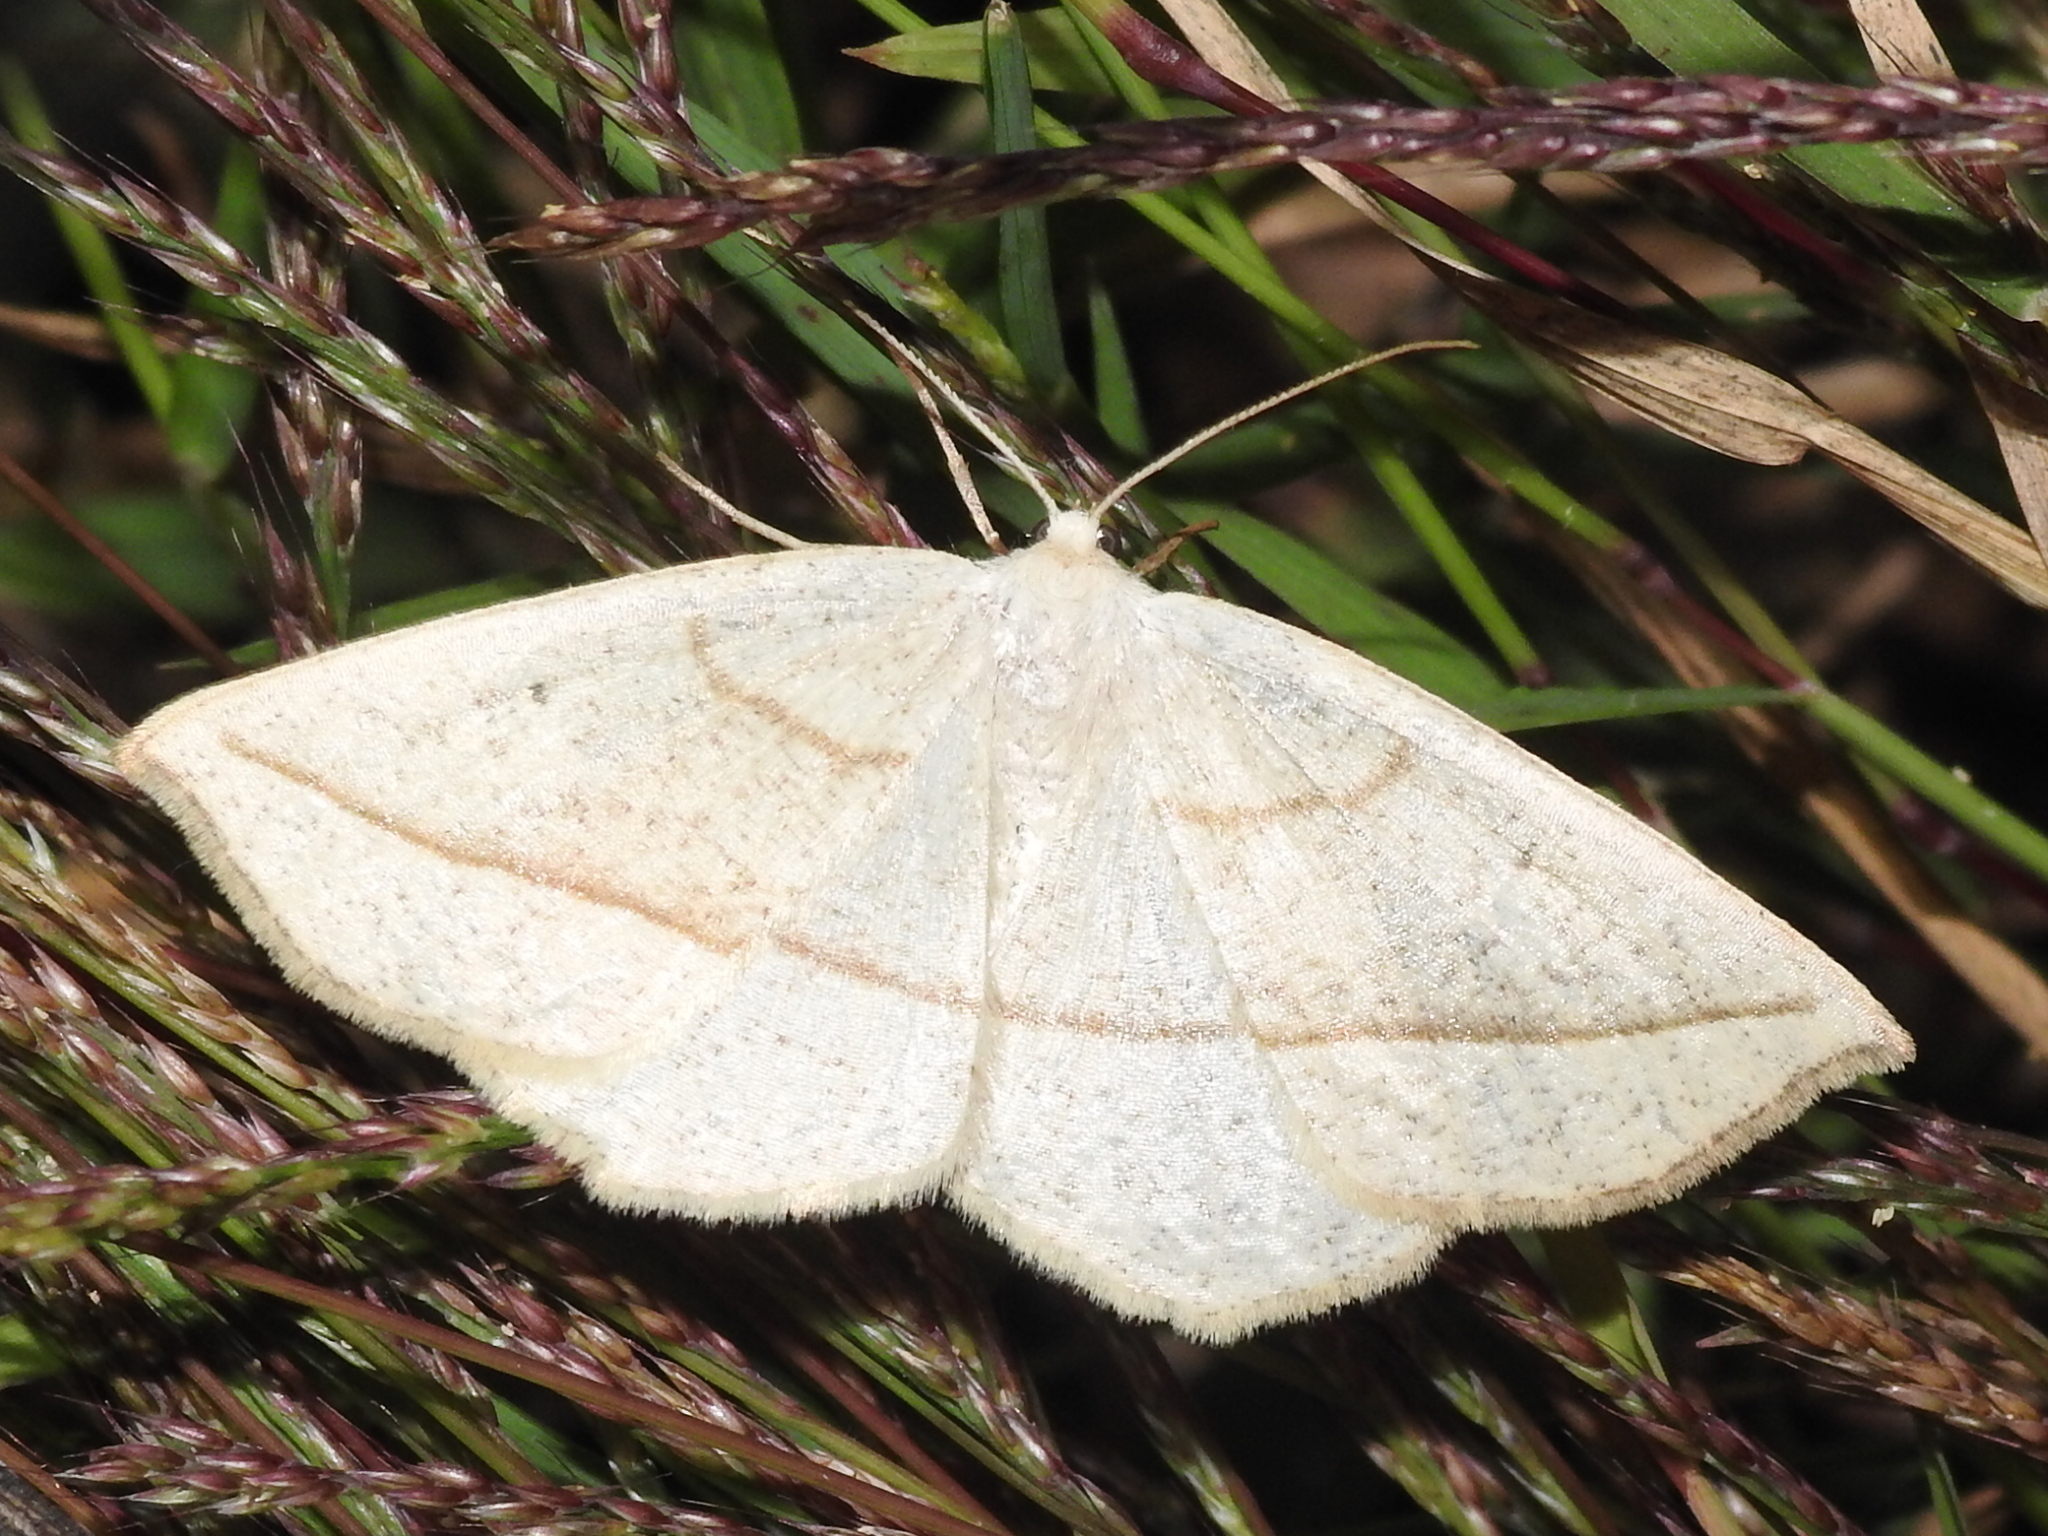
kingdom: Animalia
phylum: Arthropoda
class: Insecta
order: Lepidoptera
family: Geometridae
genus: Eusarca
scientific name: Eusarca confusaria
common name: Confused eusarca
